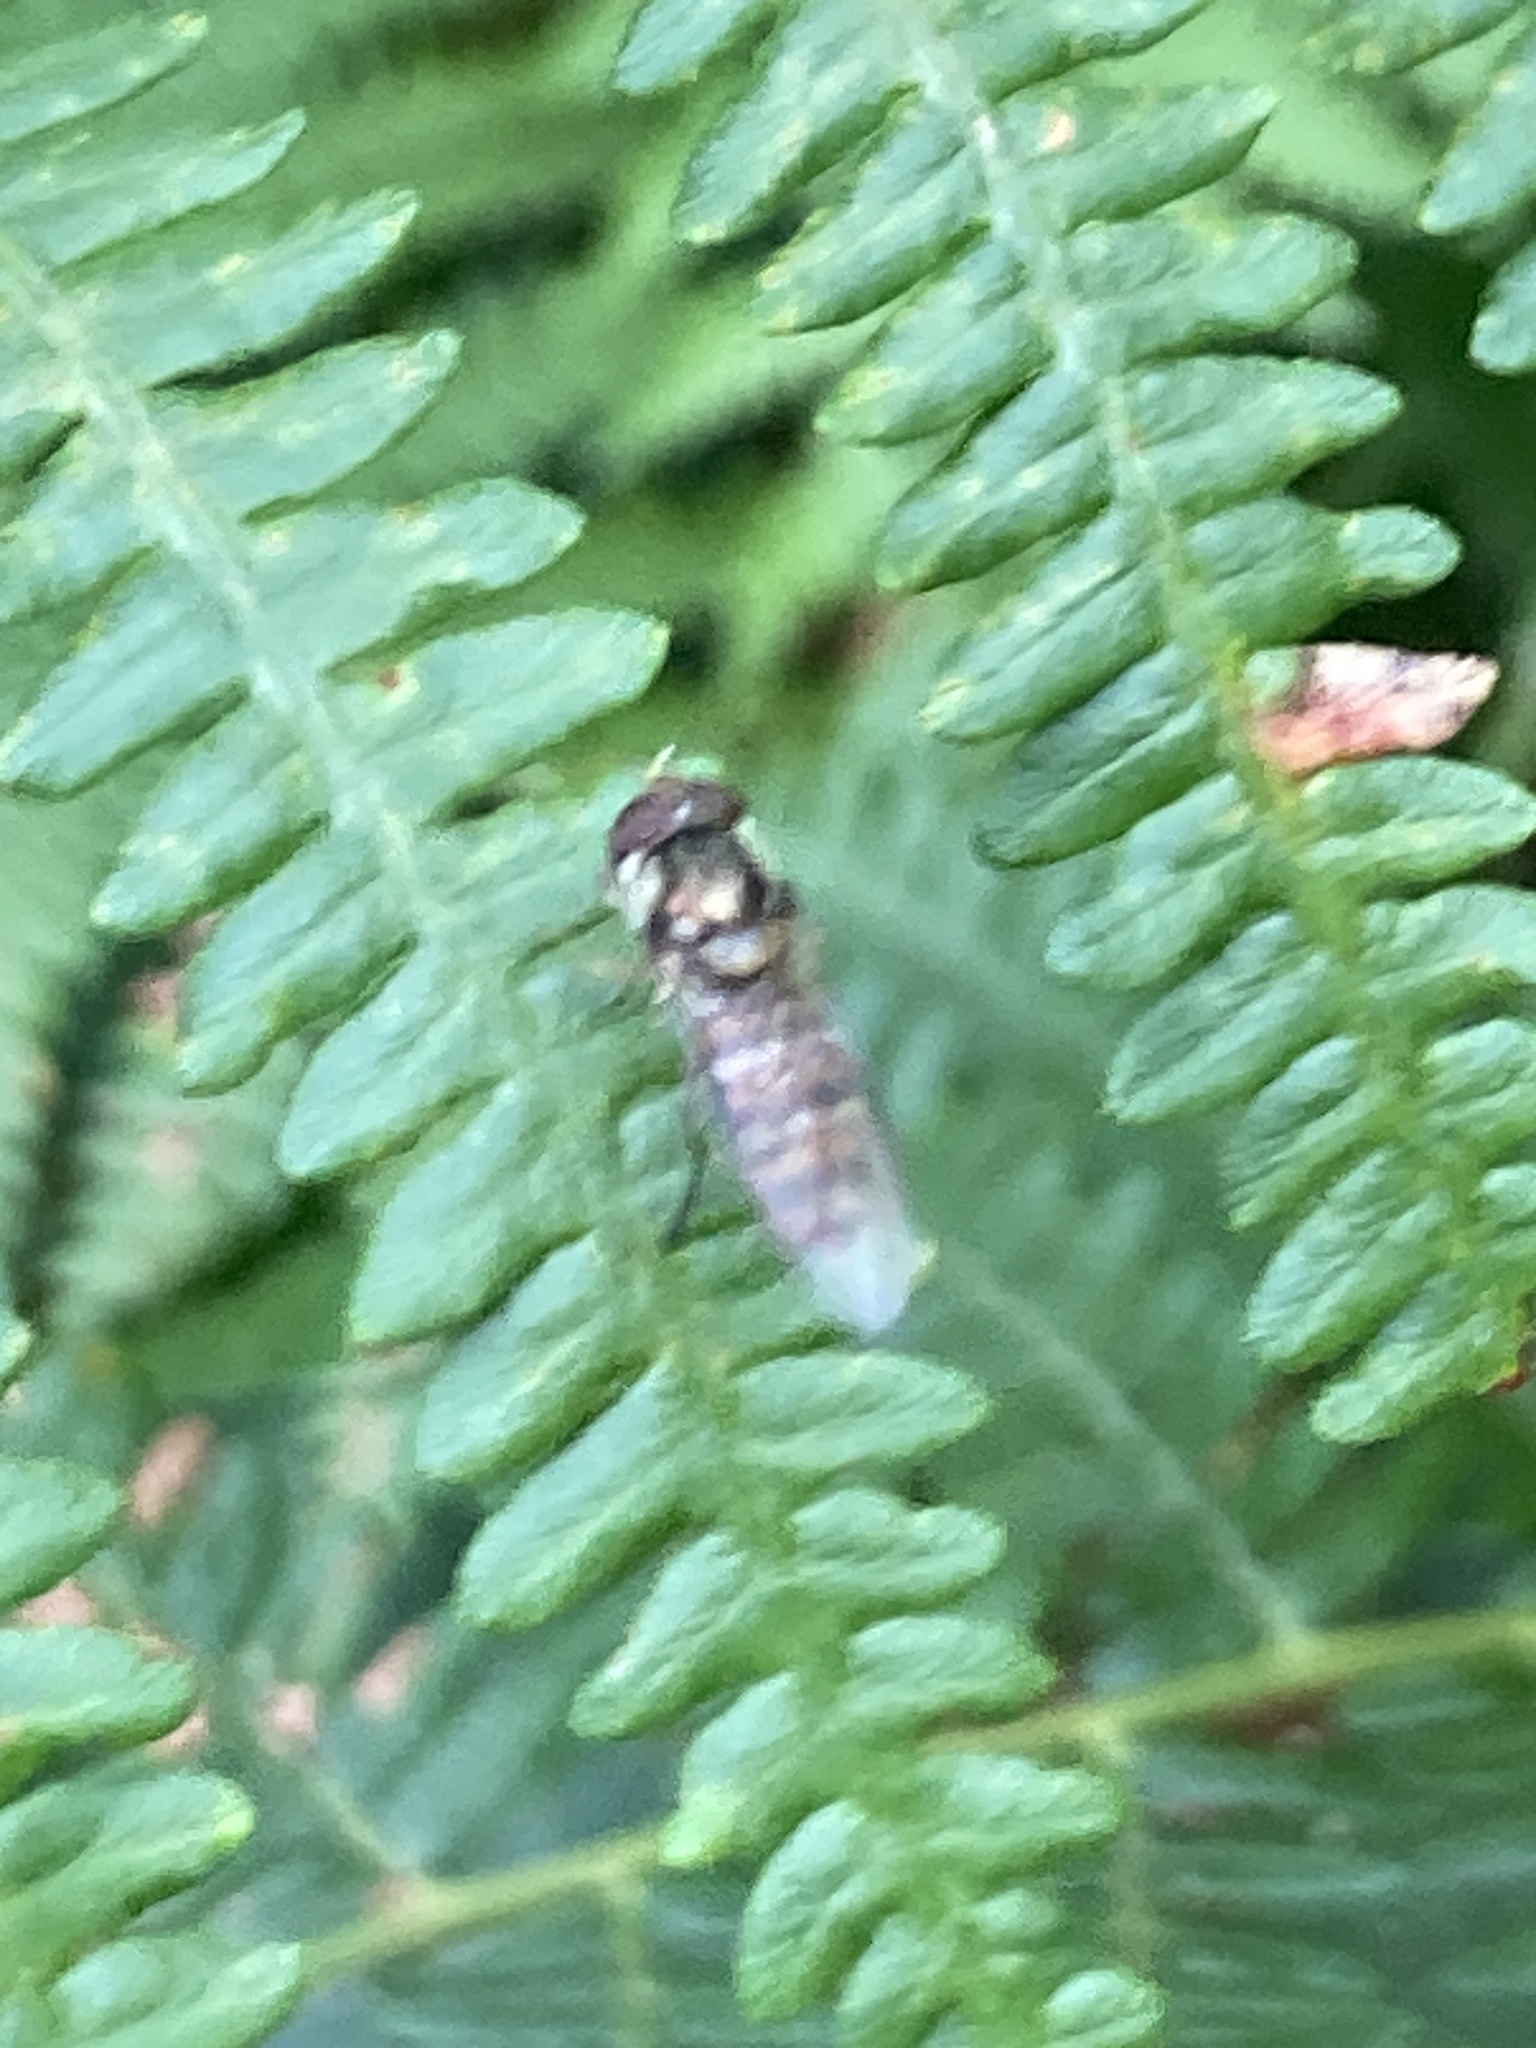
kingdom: Animalia
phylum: Arthropoda
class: Insecta
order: Diptera
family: Syrphidae
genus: Episyrphus
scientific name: Episyrphus balteatus
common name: Marmalade hoverfly
